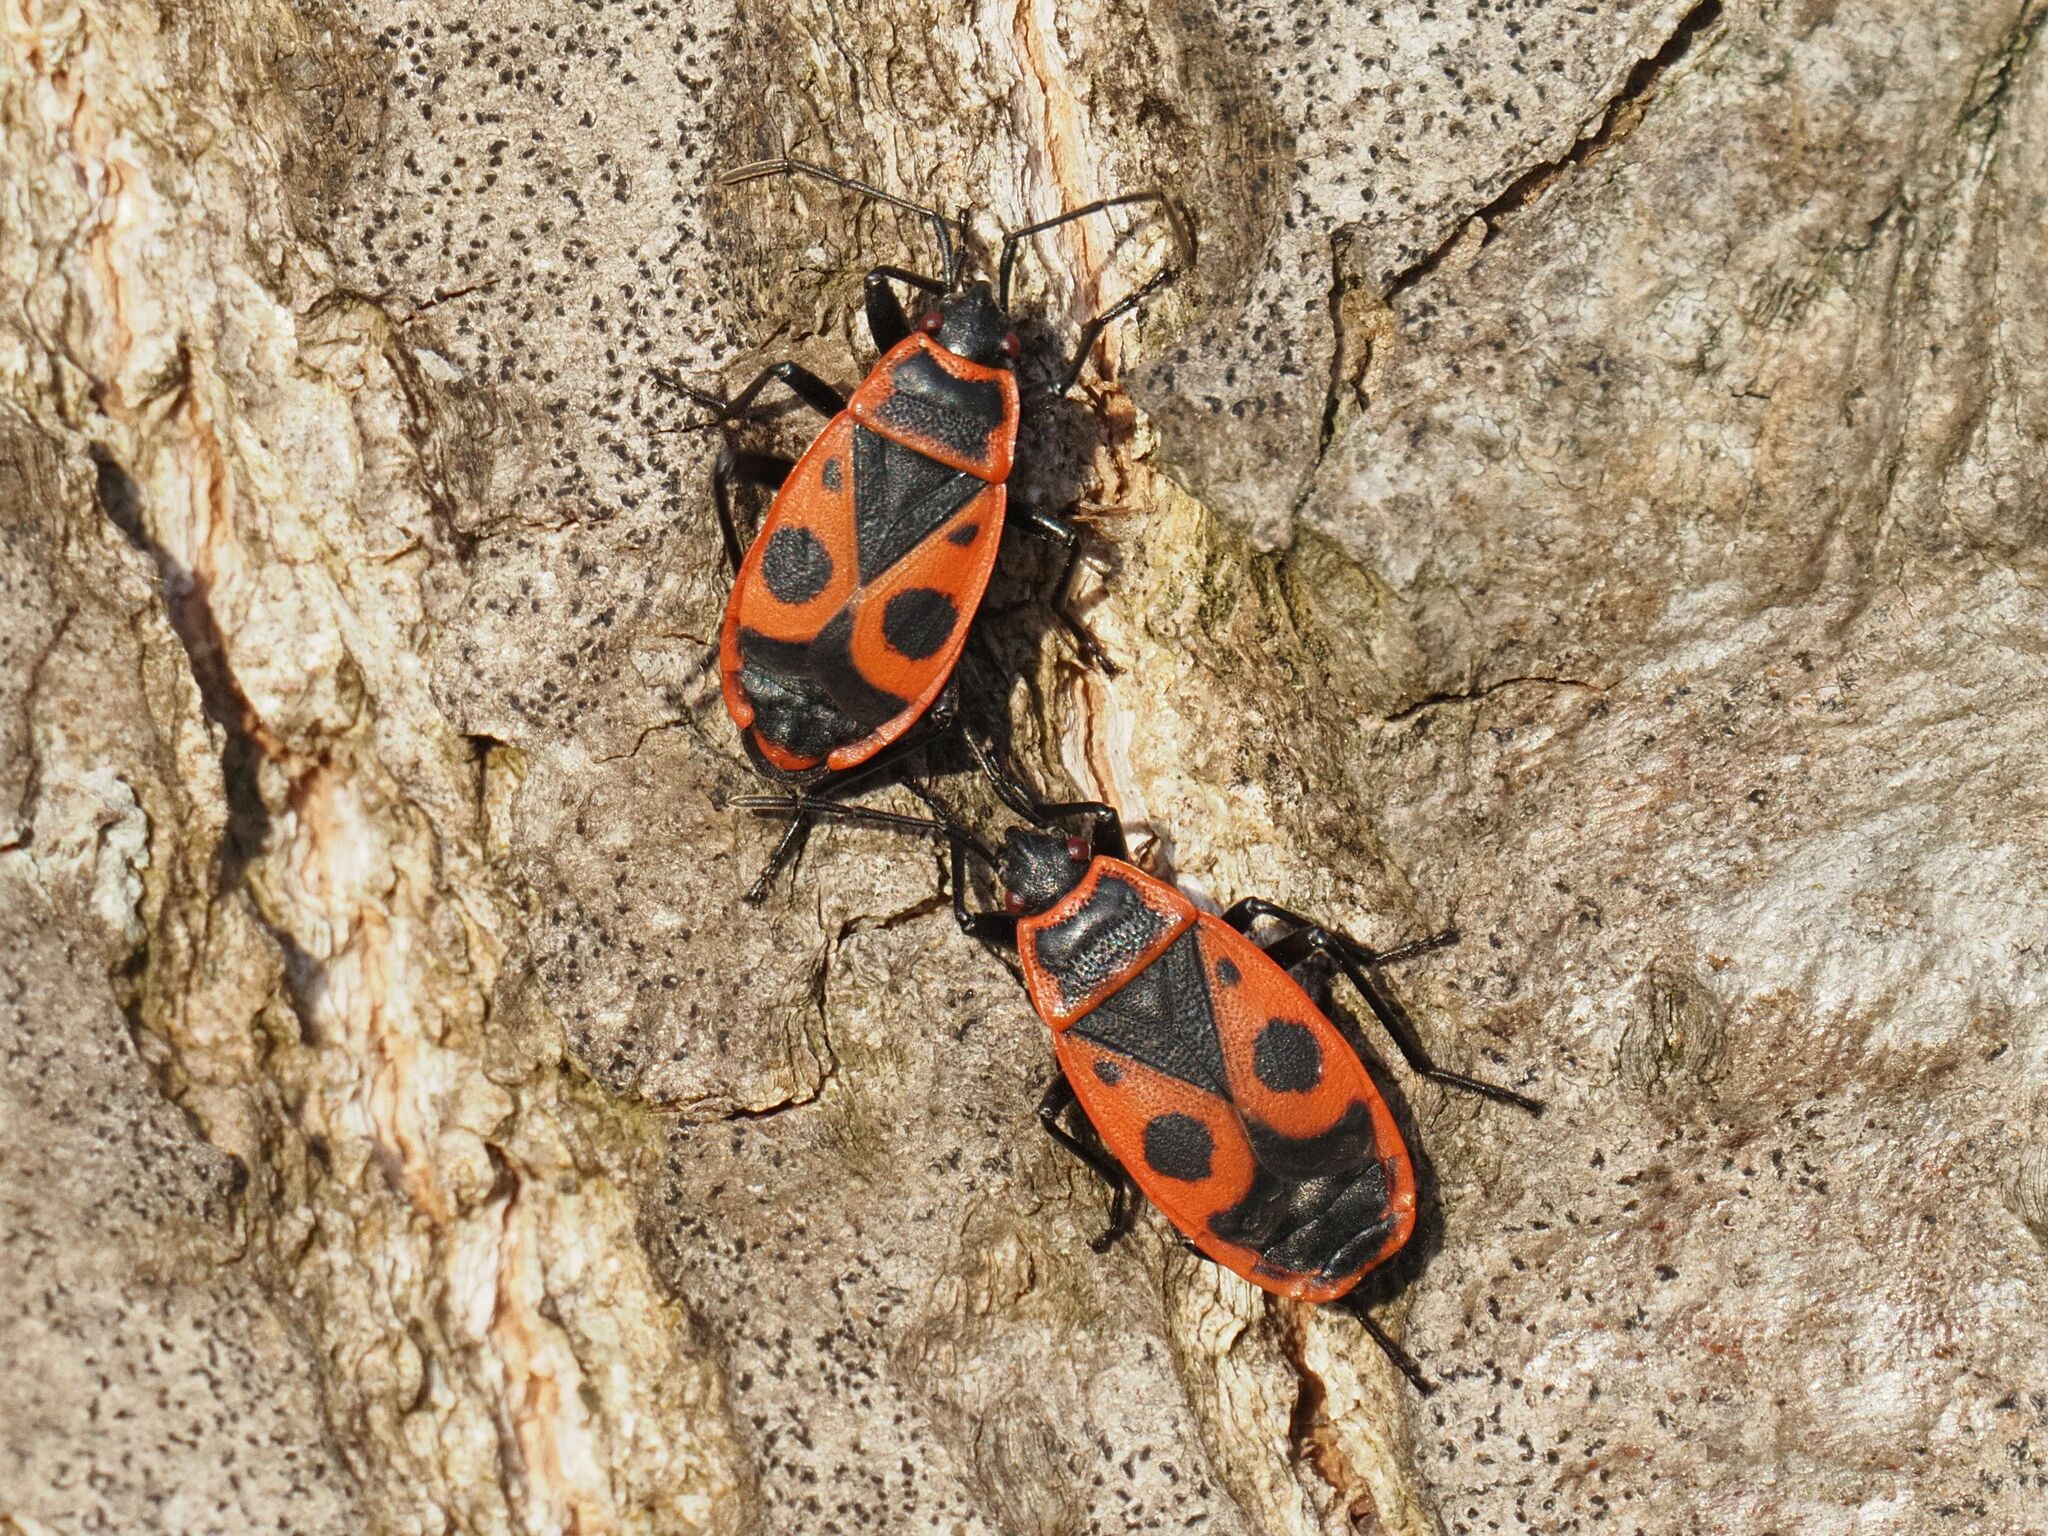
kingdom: Animalia
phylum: Arthropoda
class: Insecta
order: Hemiptera
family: Pyrrhocoridae
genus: Pyrrhocoris
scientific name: Pyrrhocoris apterus
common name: Firebug
